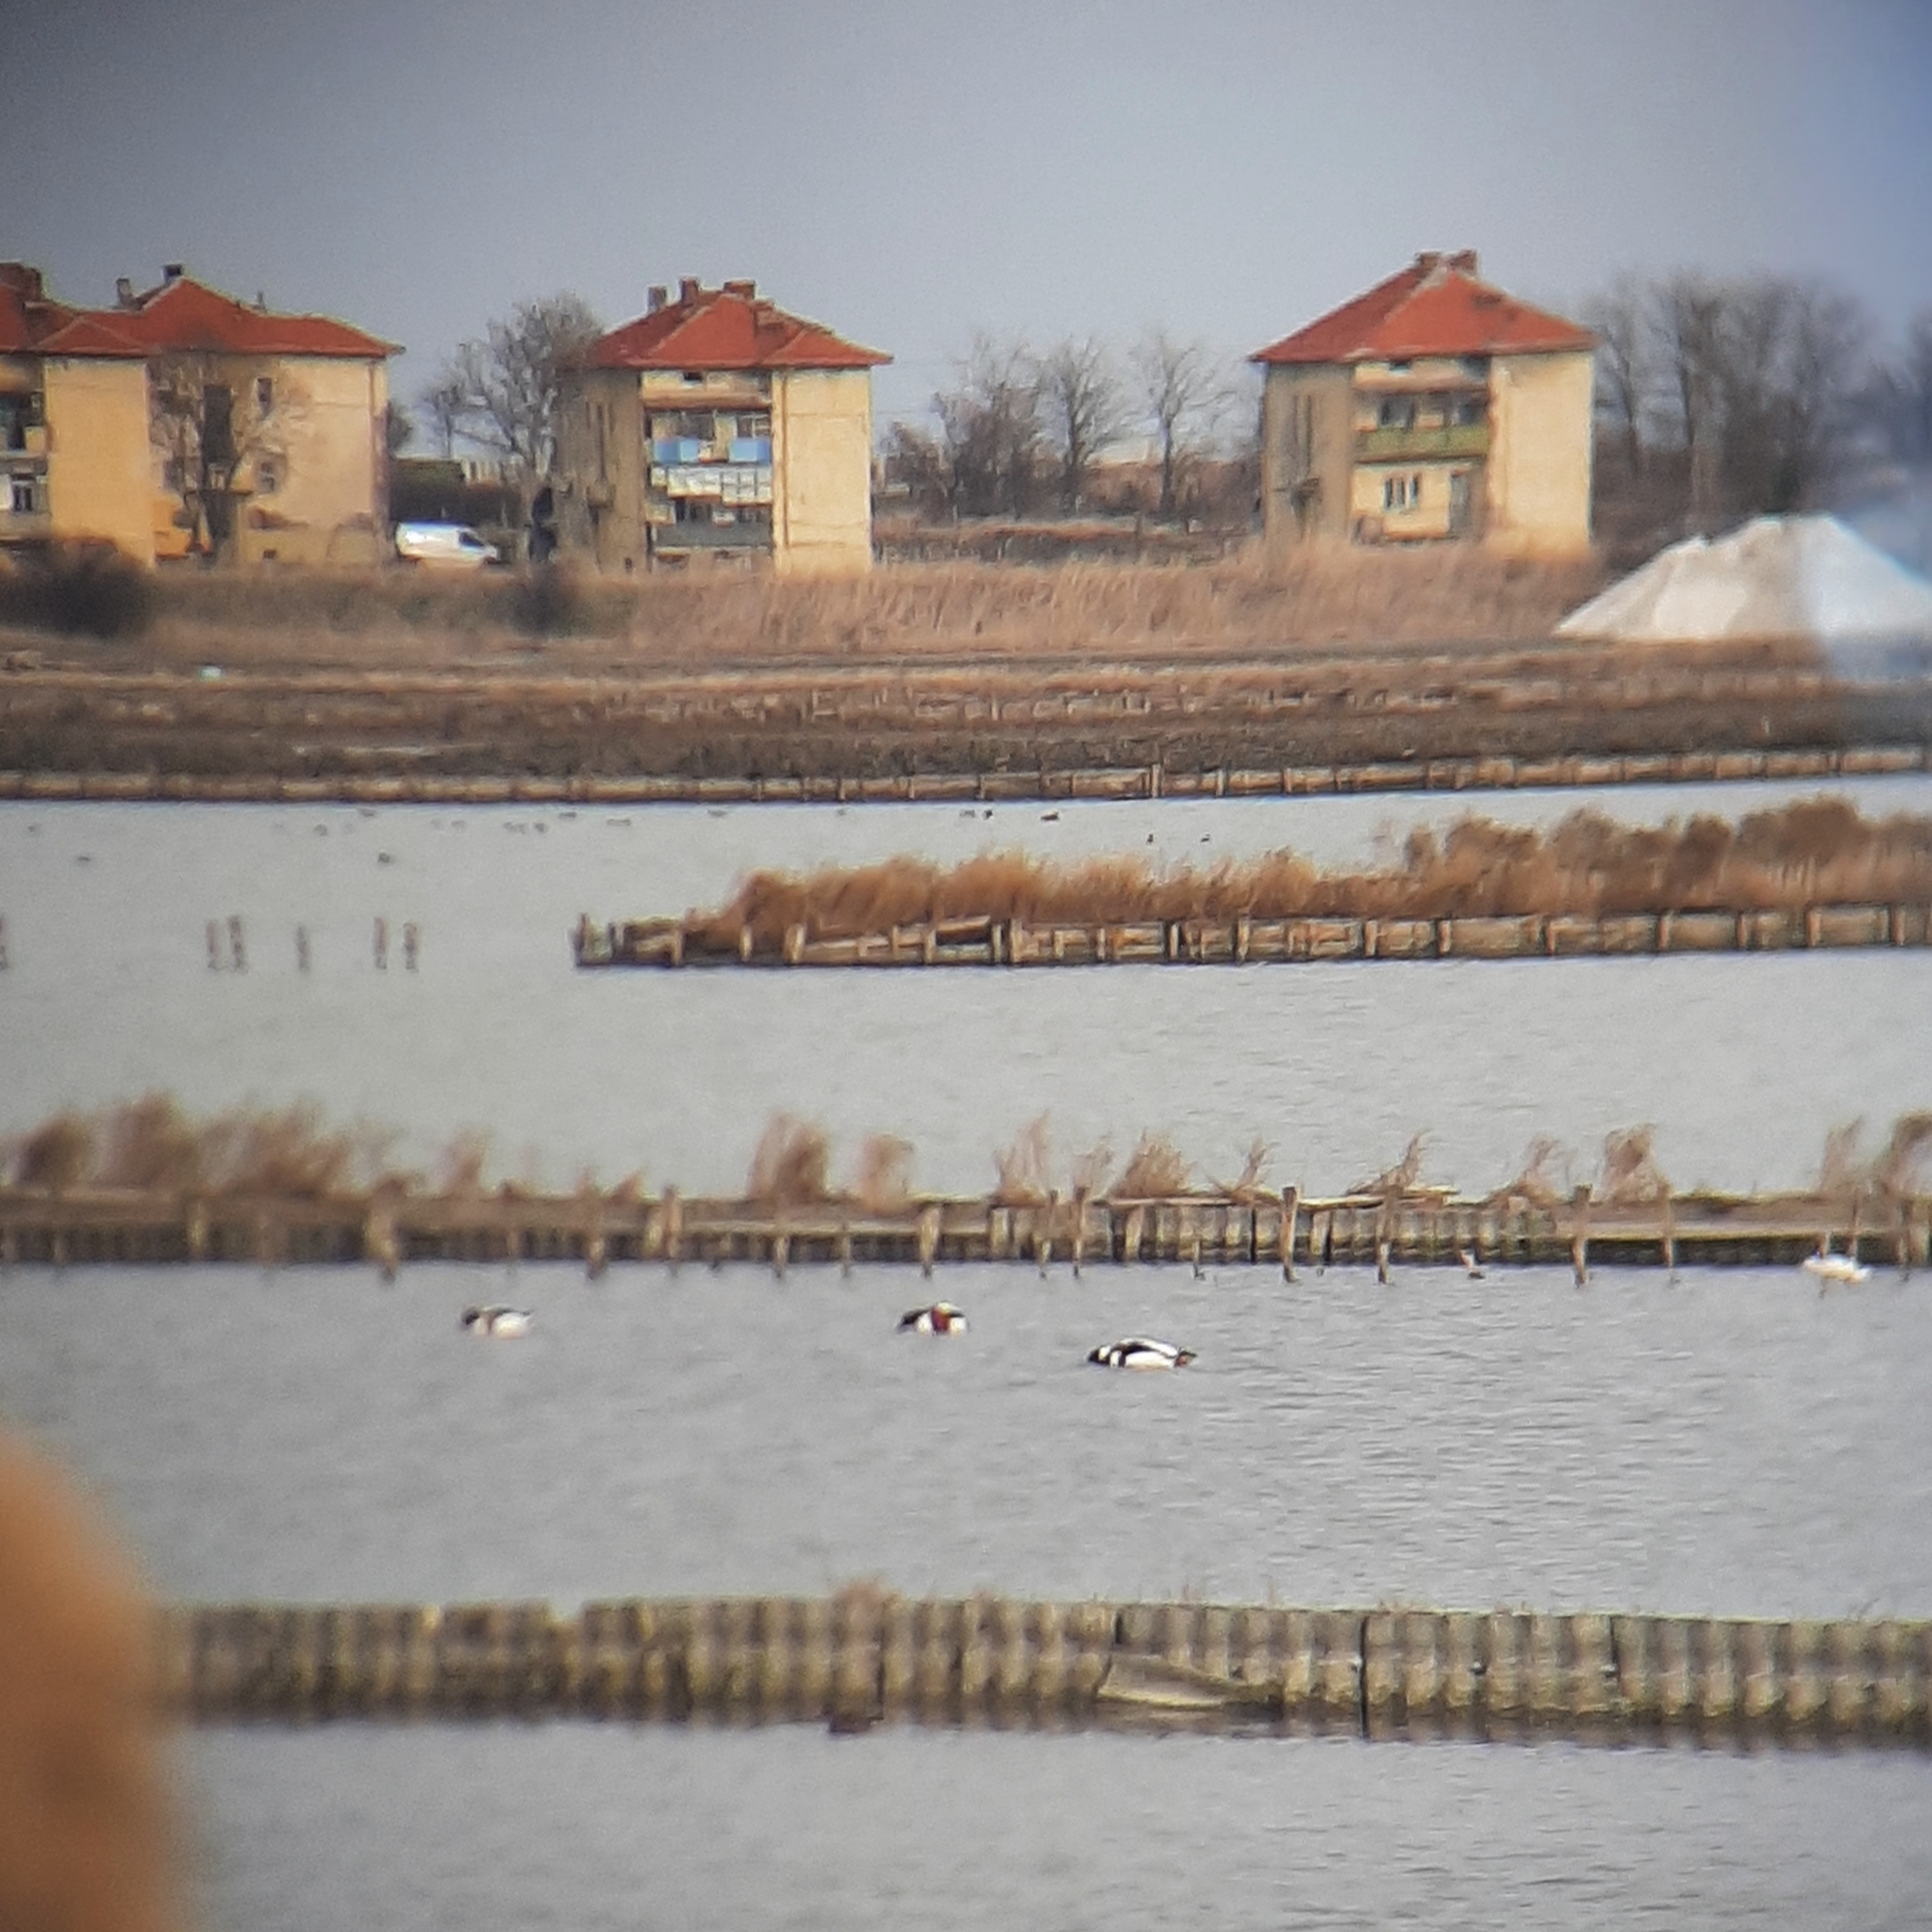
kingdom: Animalia
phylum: Chordata
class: Aves
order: Anseriformes
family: Anatidae
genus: Tadorna
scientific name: Tadorna tadorna
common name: Common shelduck
